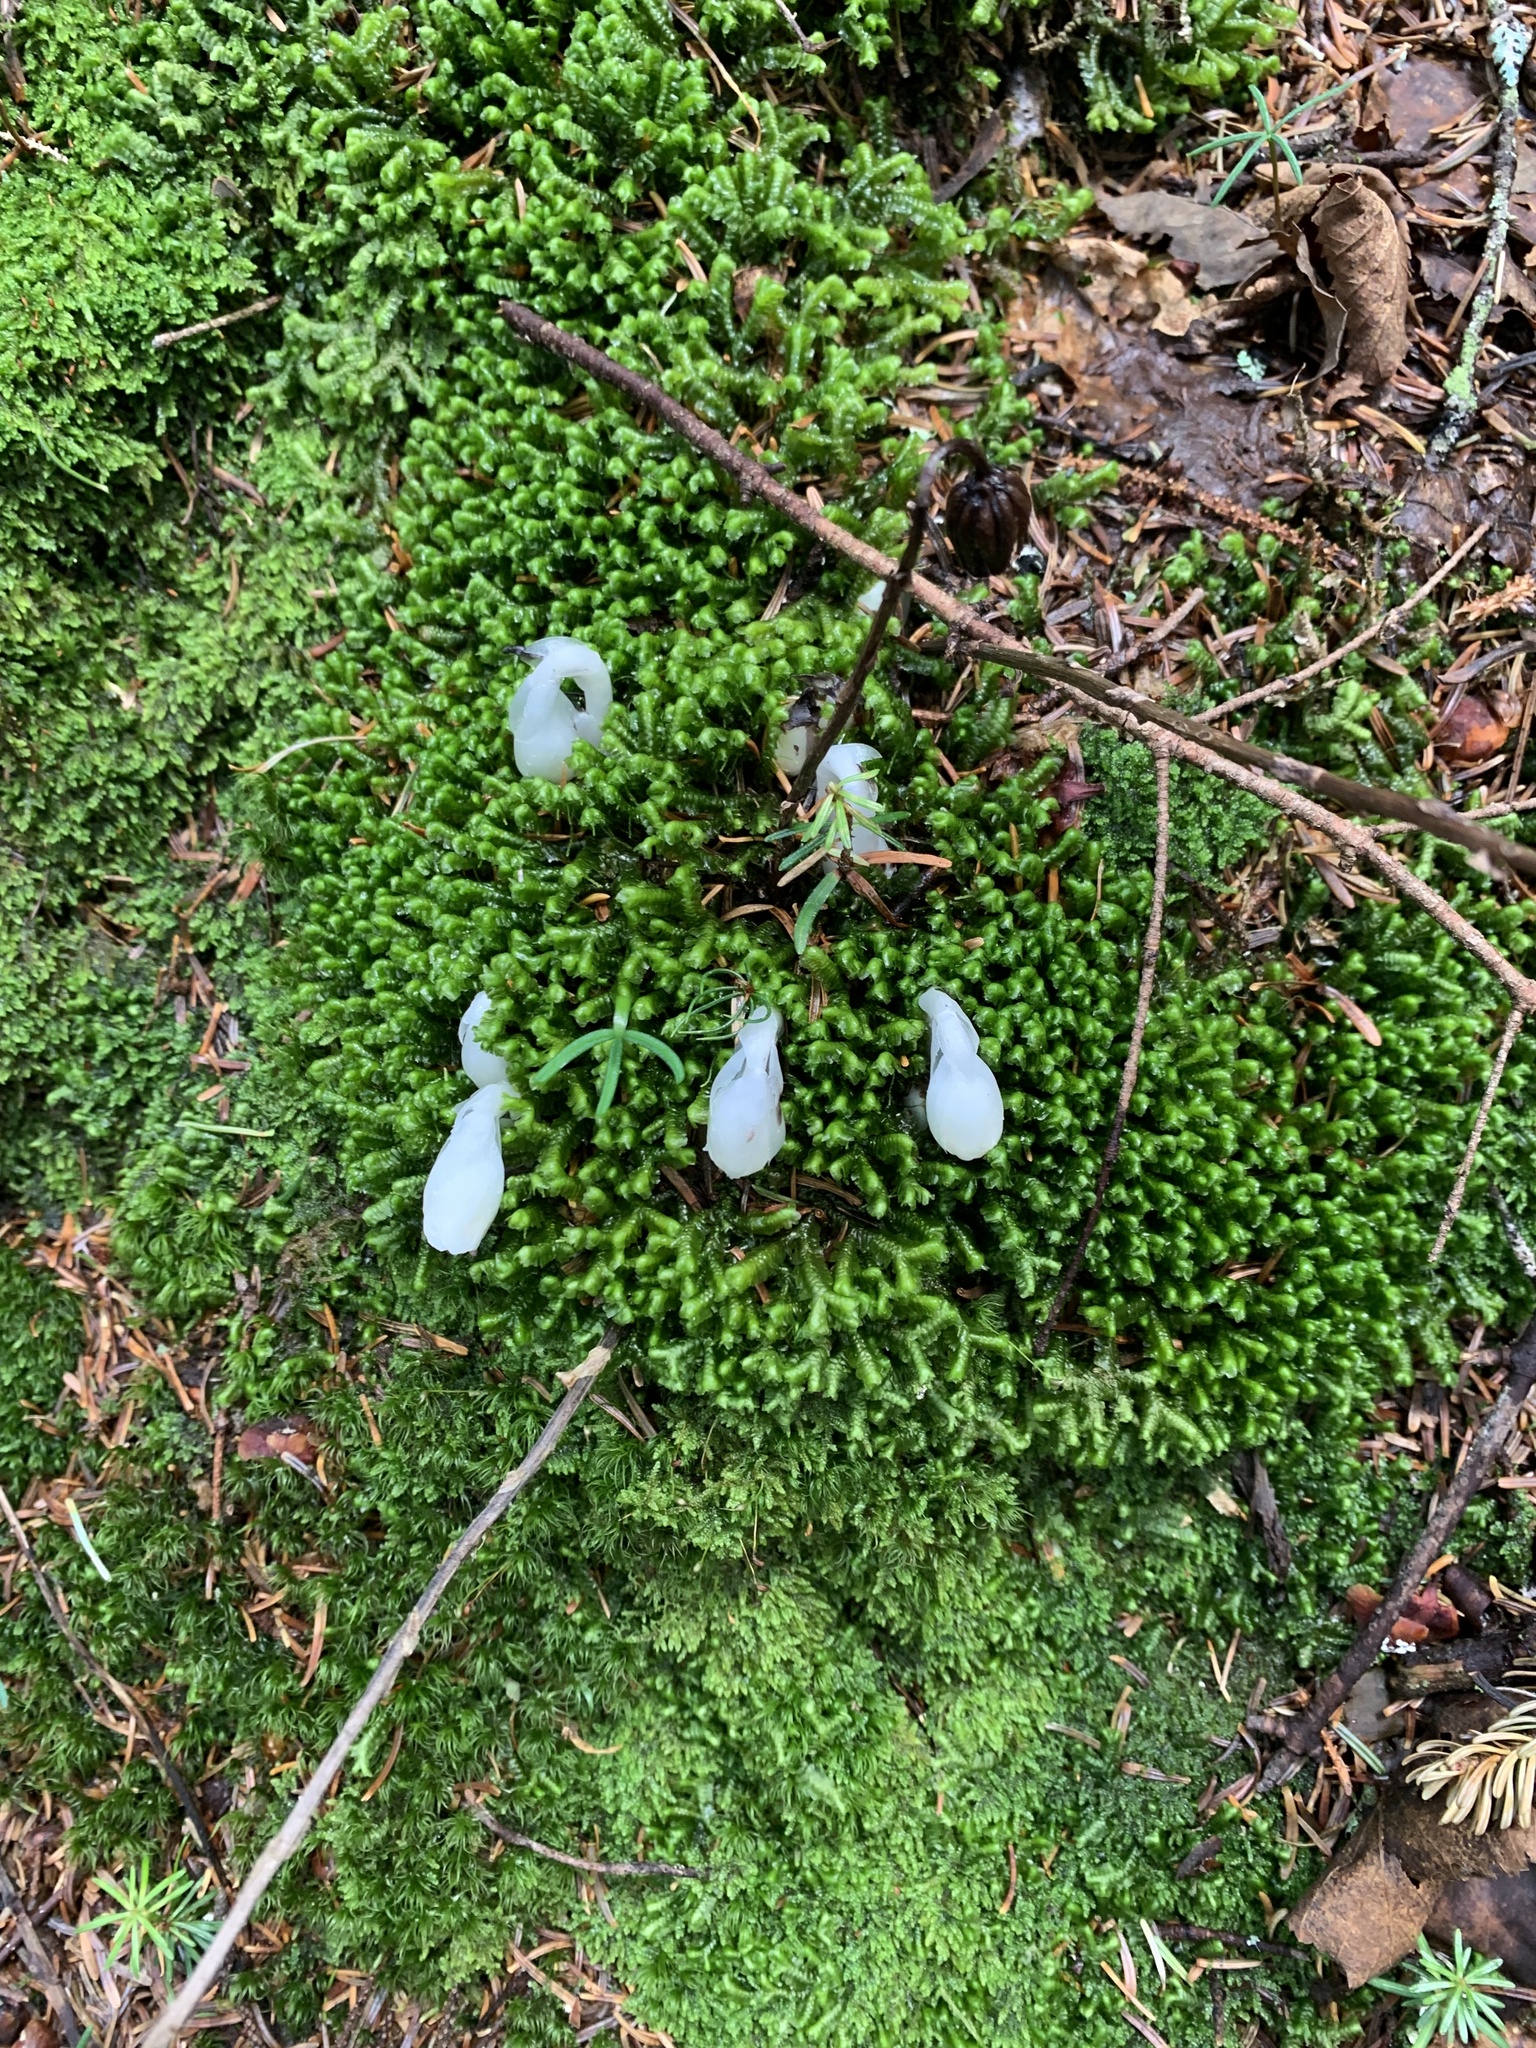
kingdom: Plantae
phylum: Tracheophyta
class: Magnoliopsida
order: Ericales
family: Ericaceae
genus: Monotropa
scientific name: Monotropa uniflora
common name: Convulsion root
